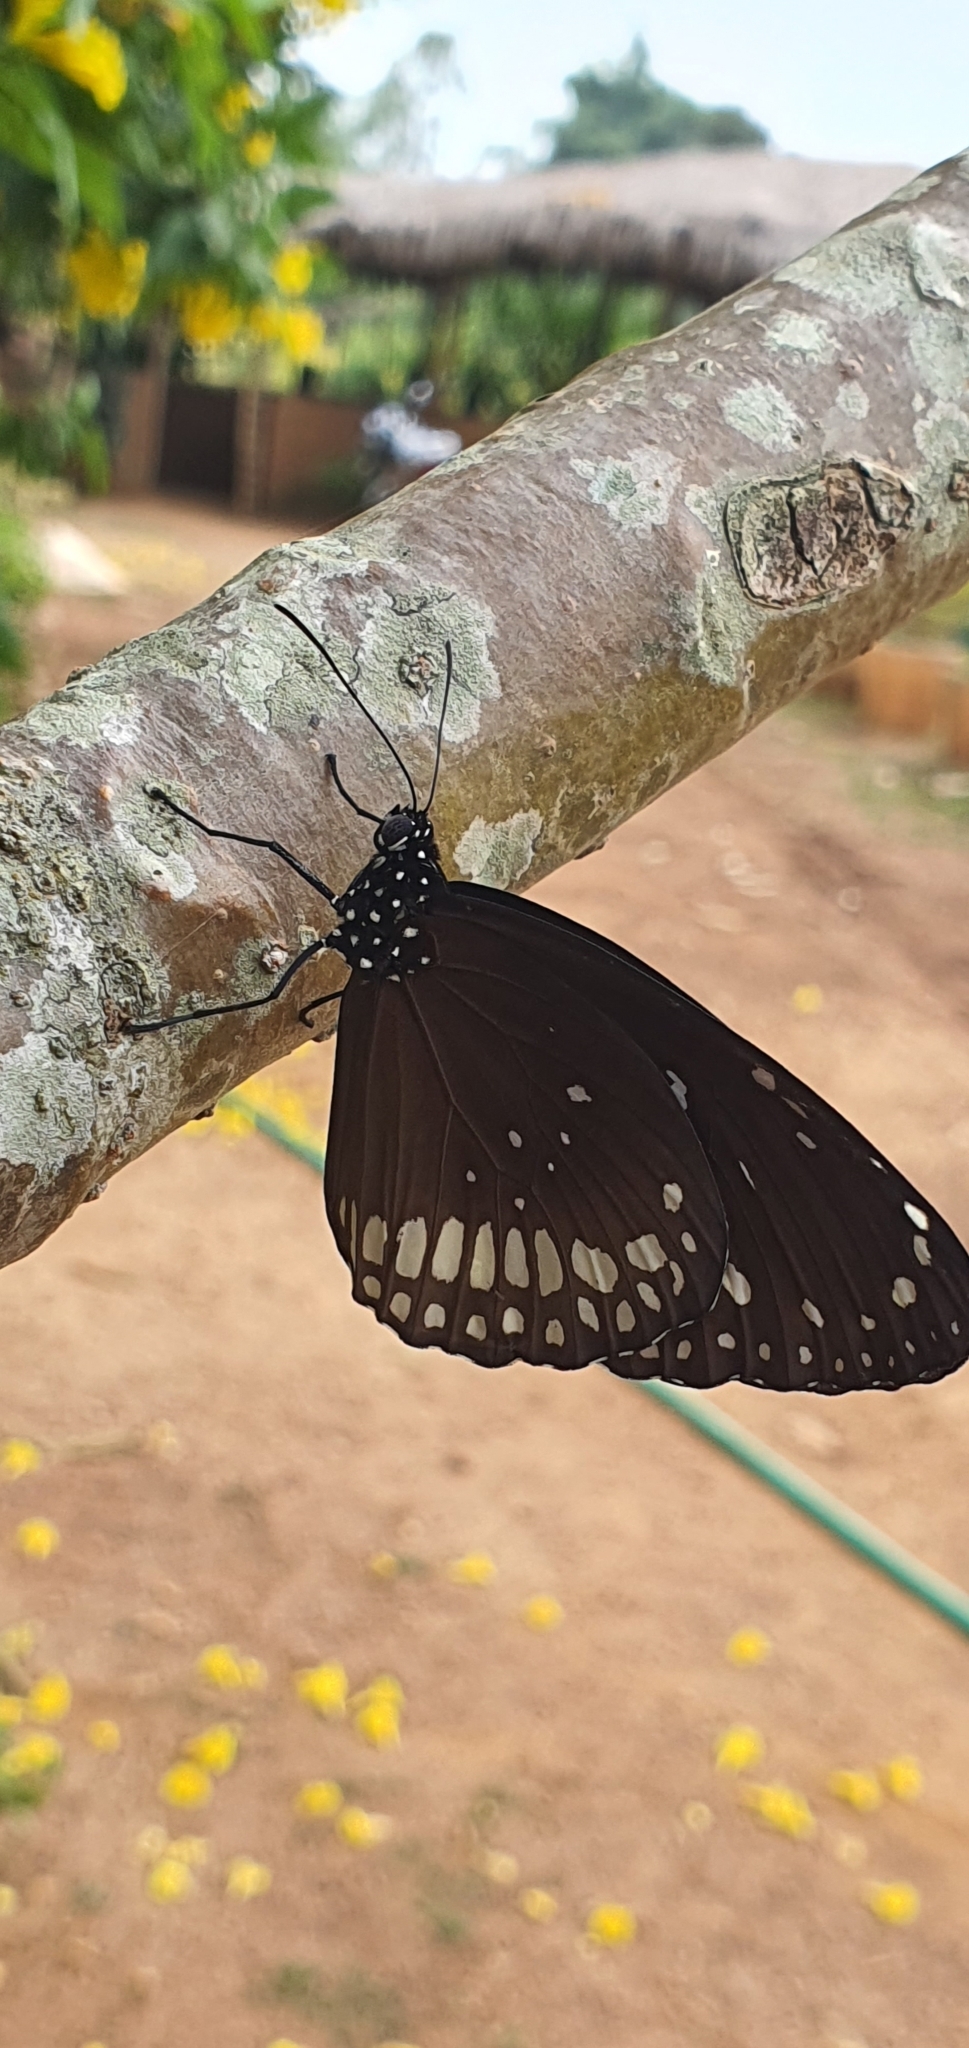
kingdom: Animalia
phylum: Arthropoda
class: Insecta
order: Lepidoptera
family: Nymphalidae
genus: Euploea
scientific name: Euploea core
